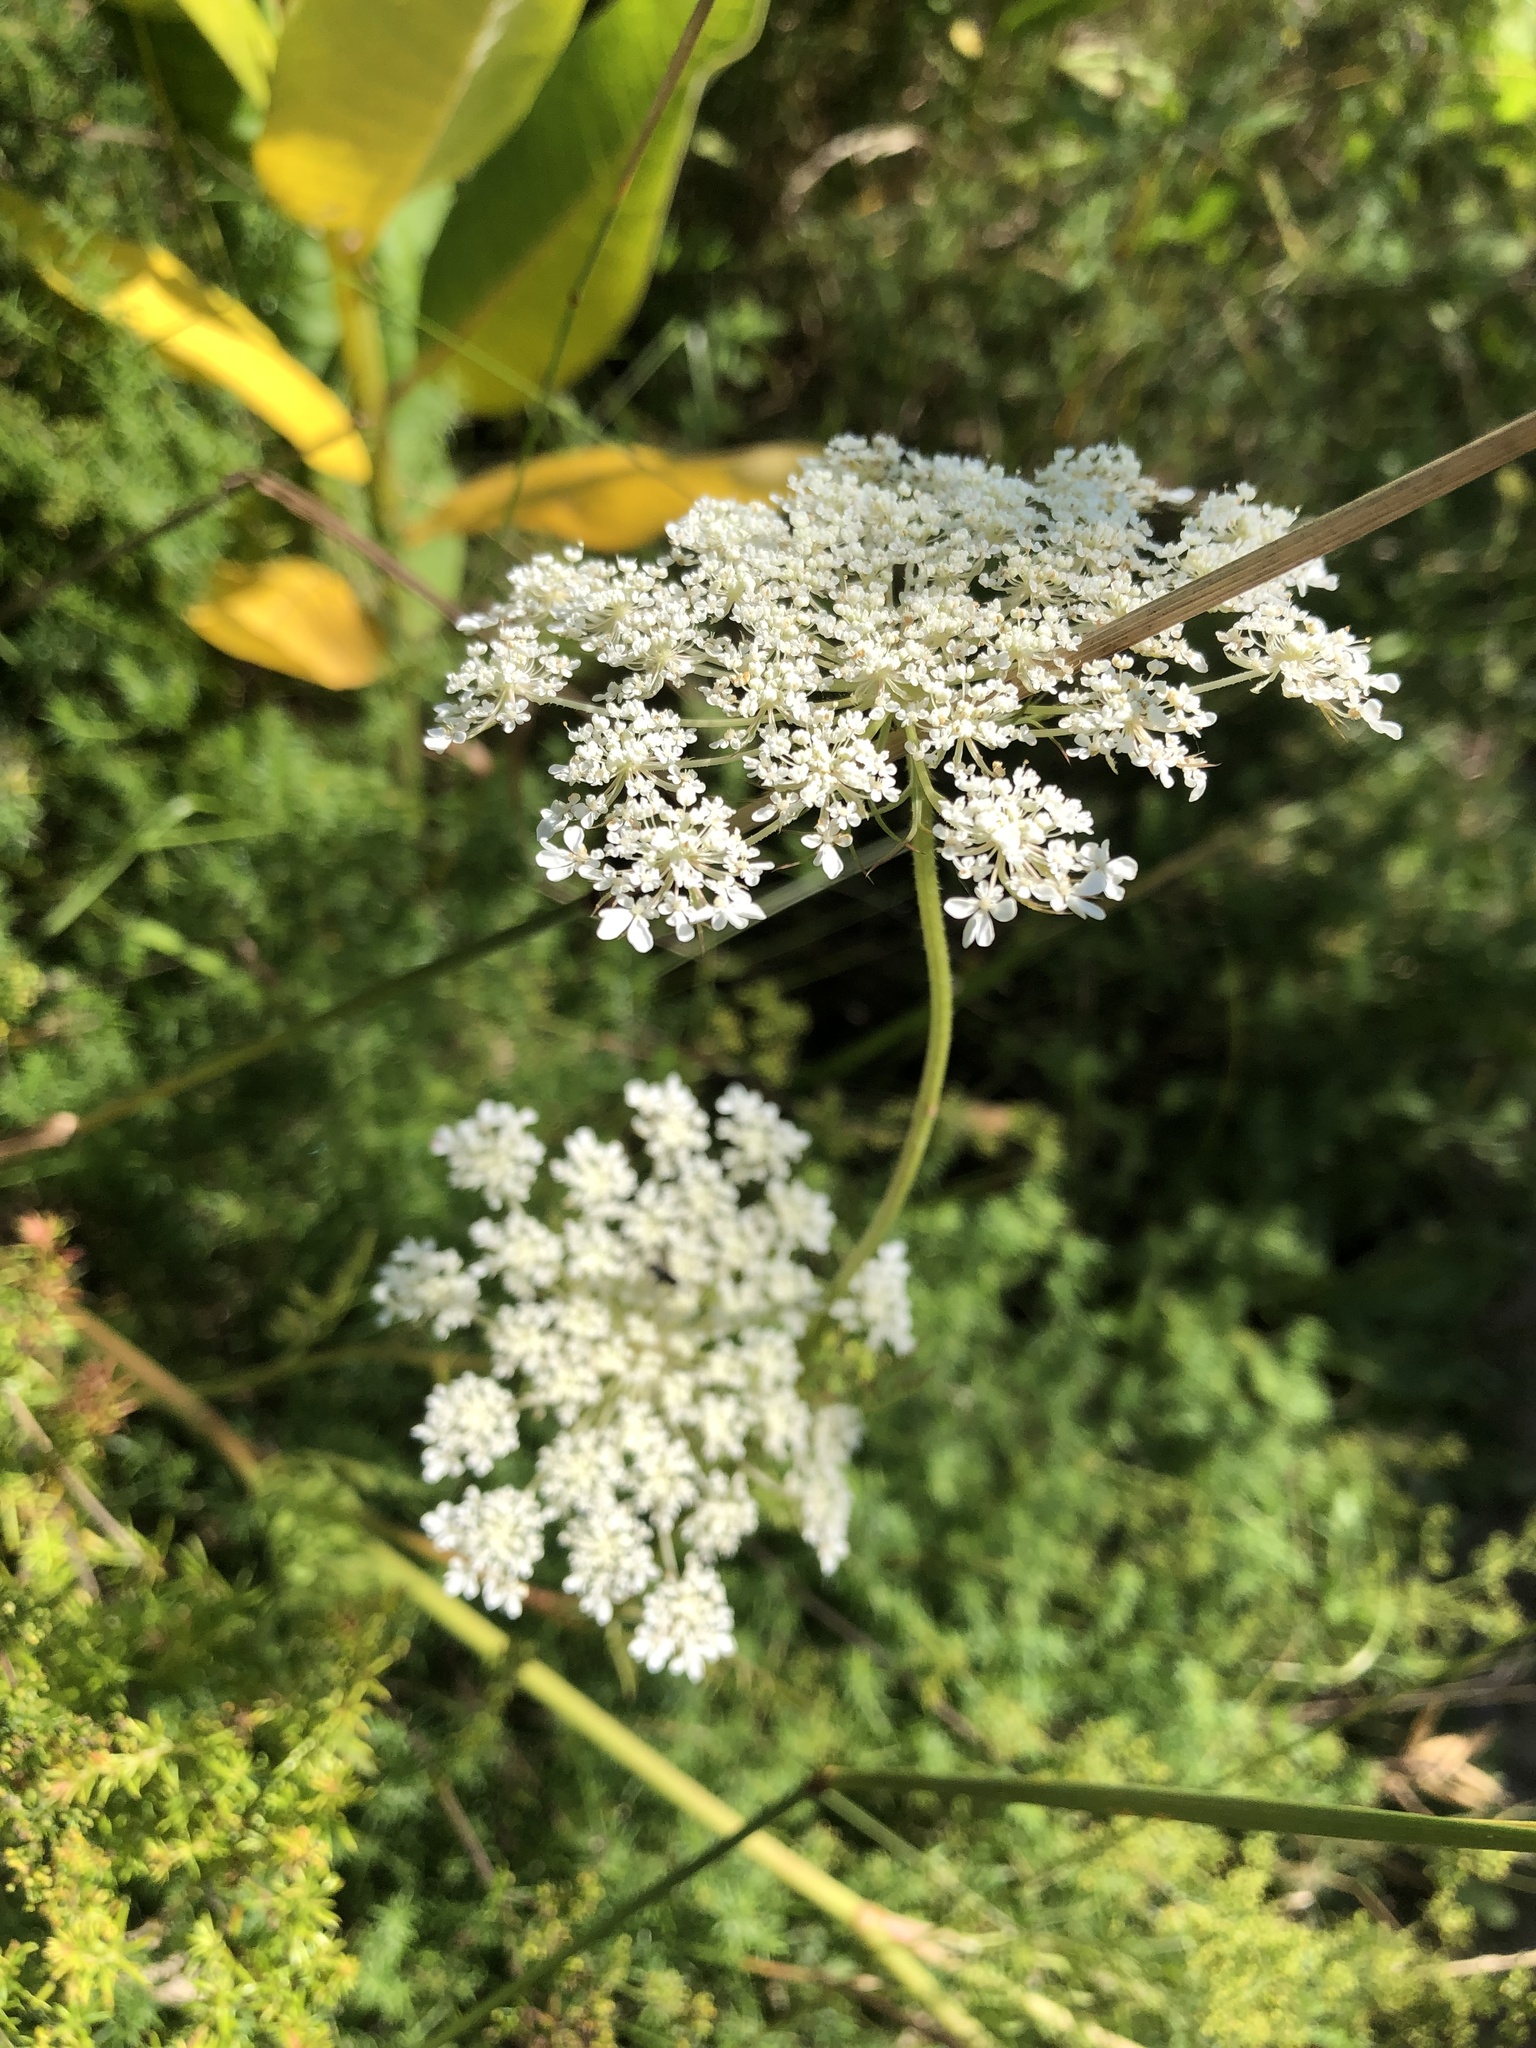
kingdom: Plantae
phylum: Tracheophyta
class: Magnoliopsida
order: Apiales
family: Apiaceae
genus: Daucus
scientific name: Daucus carota
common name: Wild carrot
